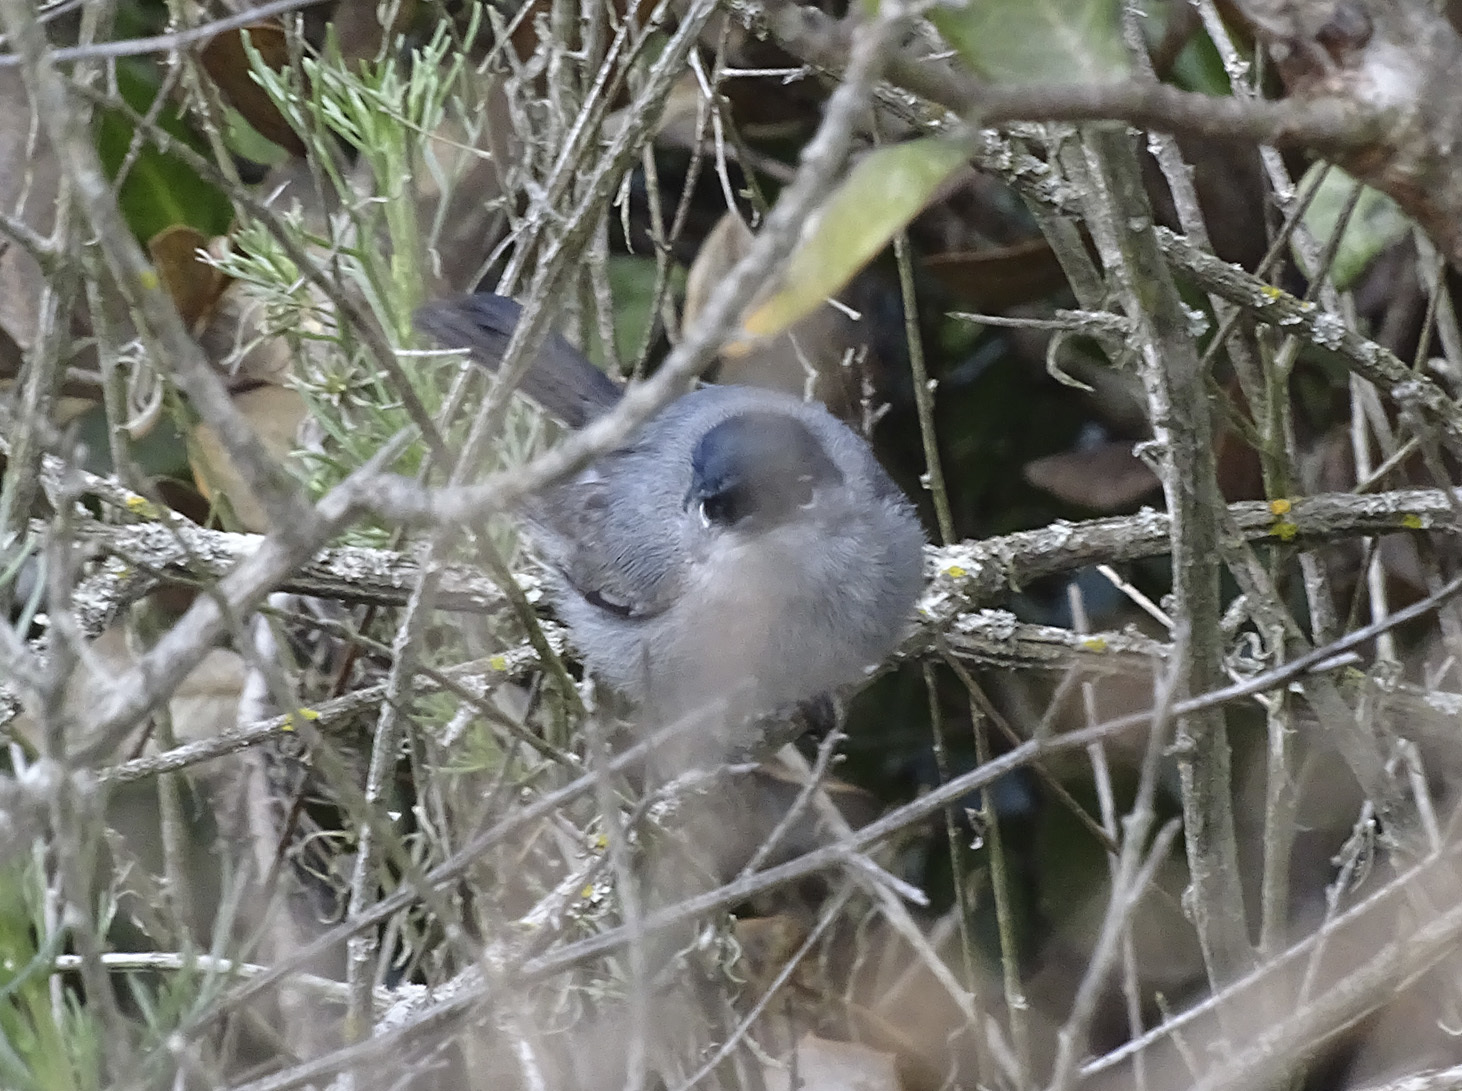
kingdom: Animalia
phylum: Chordata
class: Aves
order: Passeriformes
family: Polioptilidae
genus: Polioptila
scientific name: Polioptila californica
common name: California gnatcatcher
